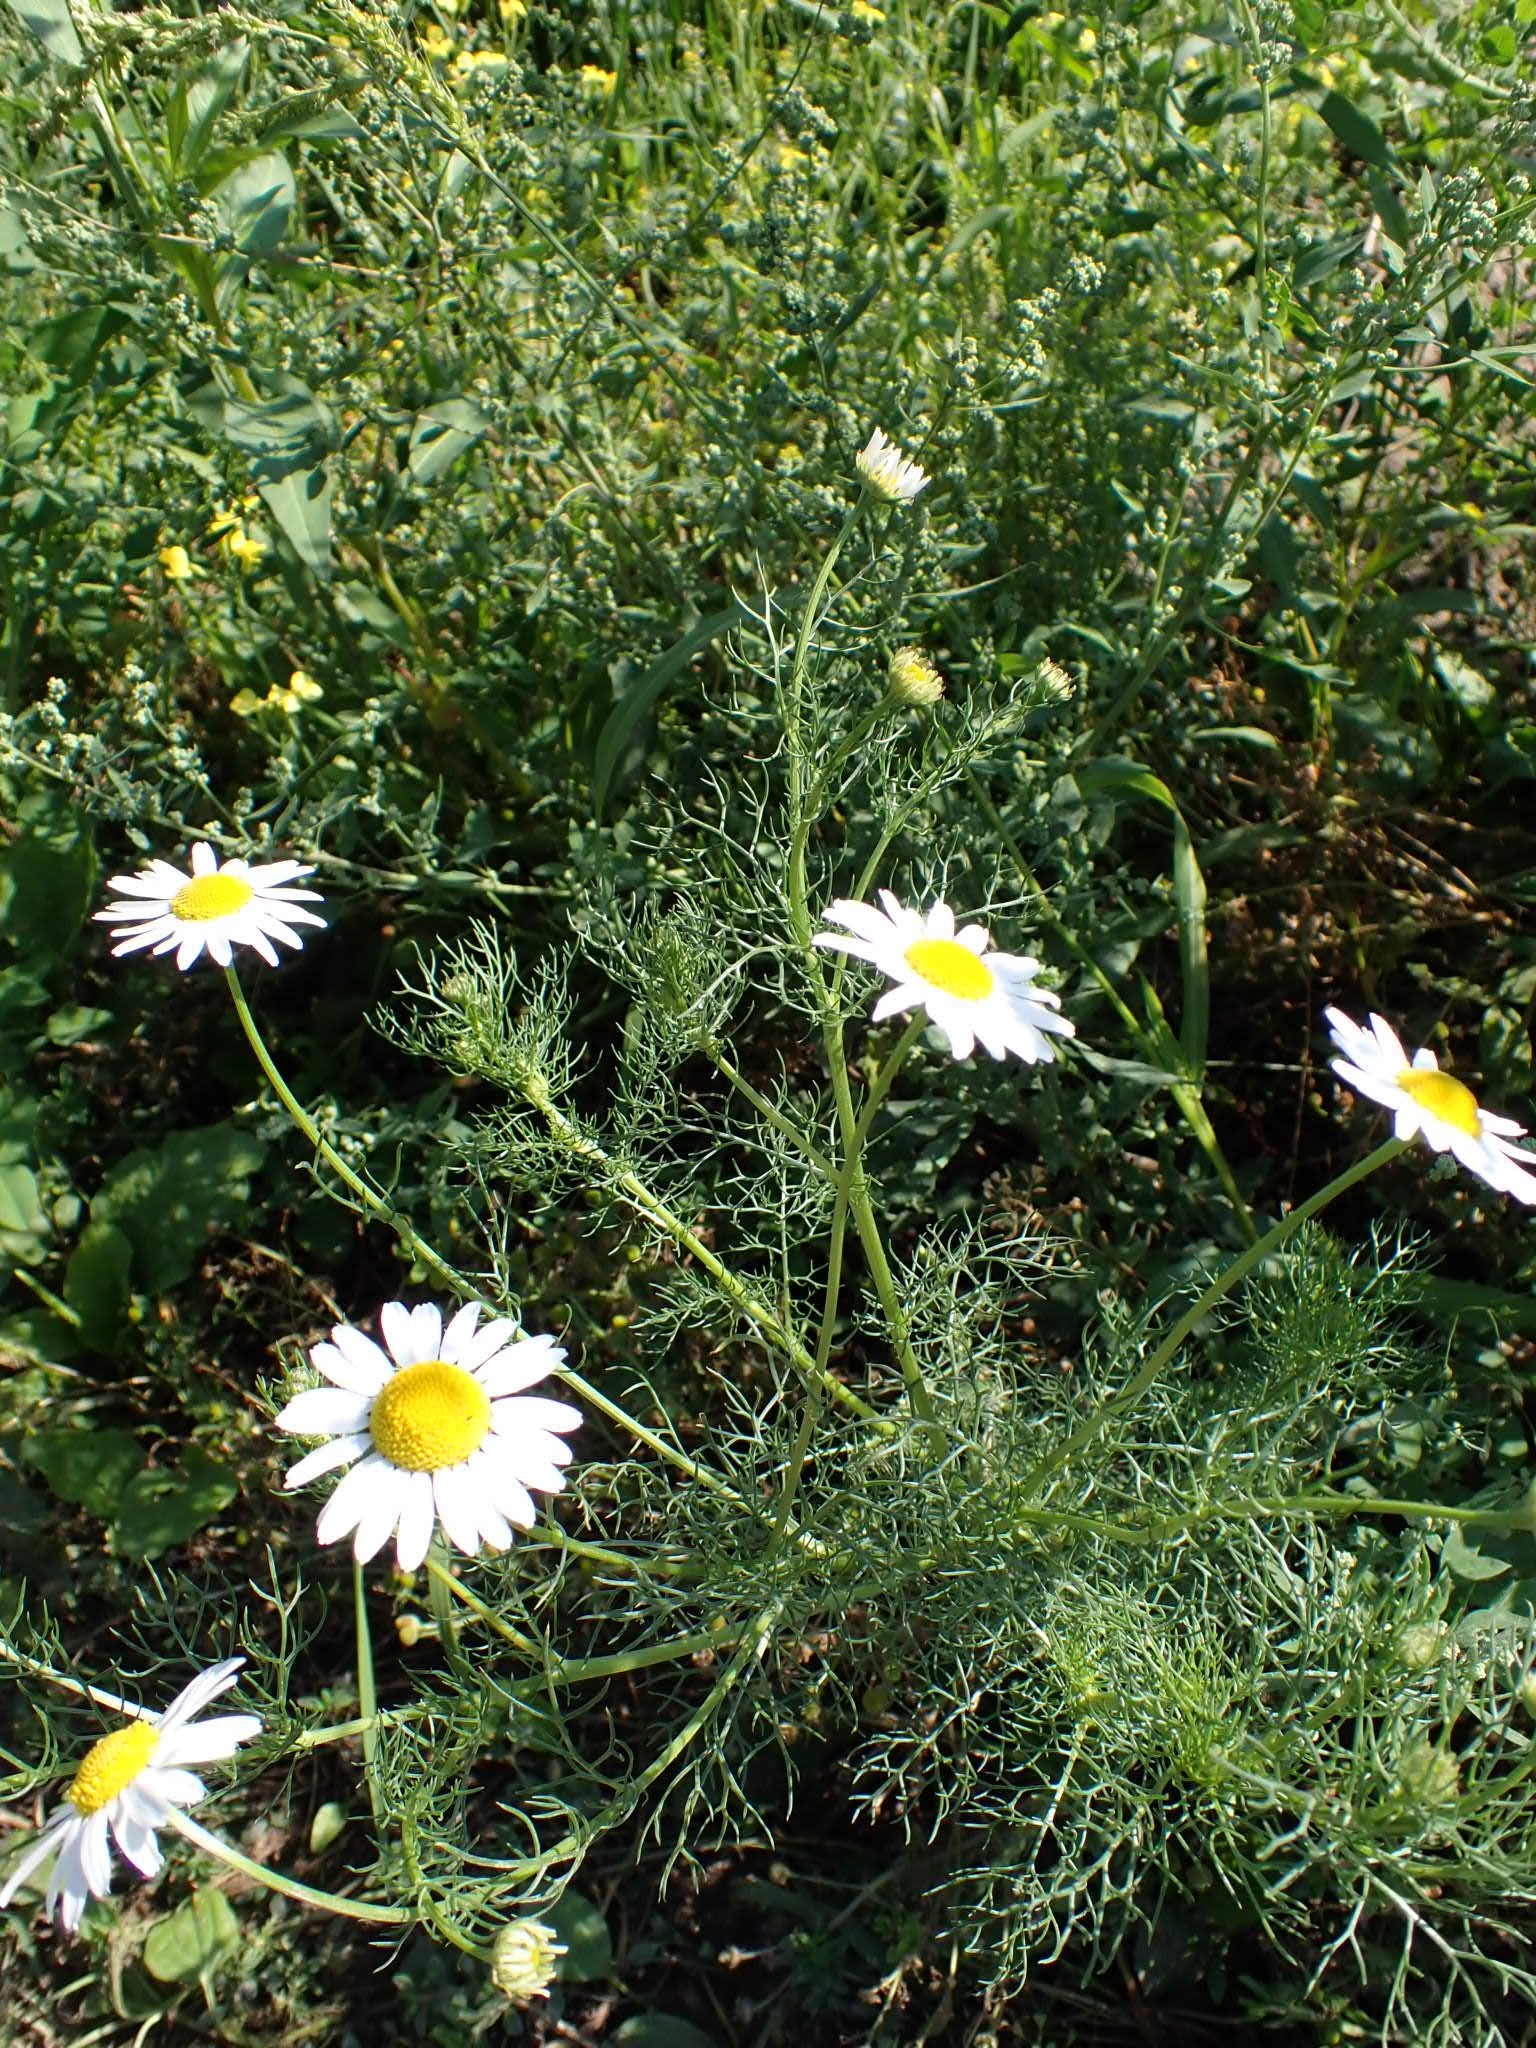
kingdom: Plantae
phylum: Tracheophyta
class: Magnoliopsida
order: Asterales
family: Asteraceae
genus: Tripleurospermum
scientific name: Tripleurospermum inodorum
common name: Scentless mayweed
